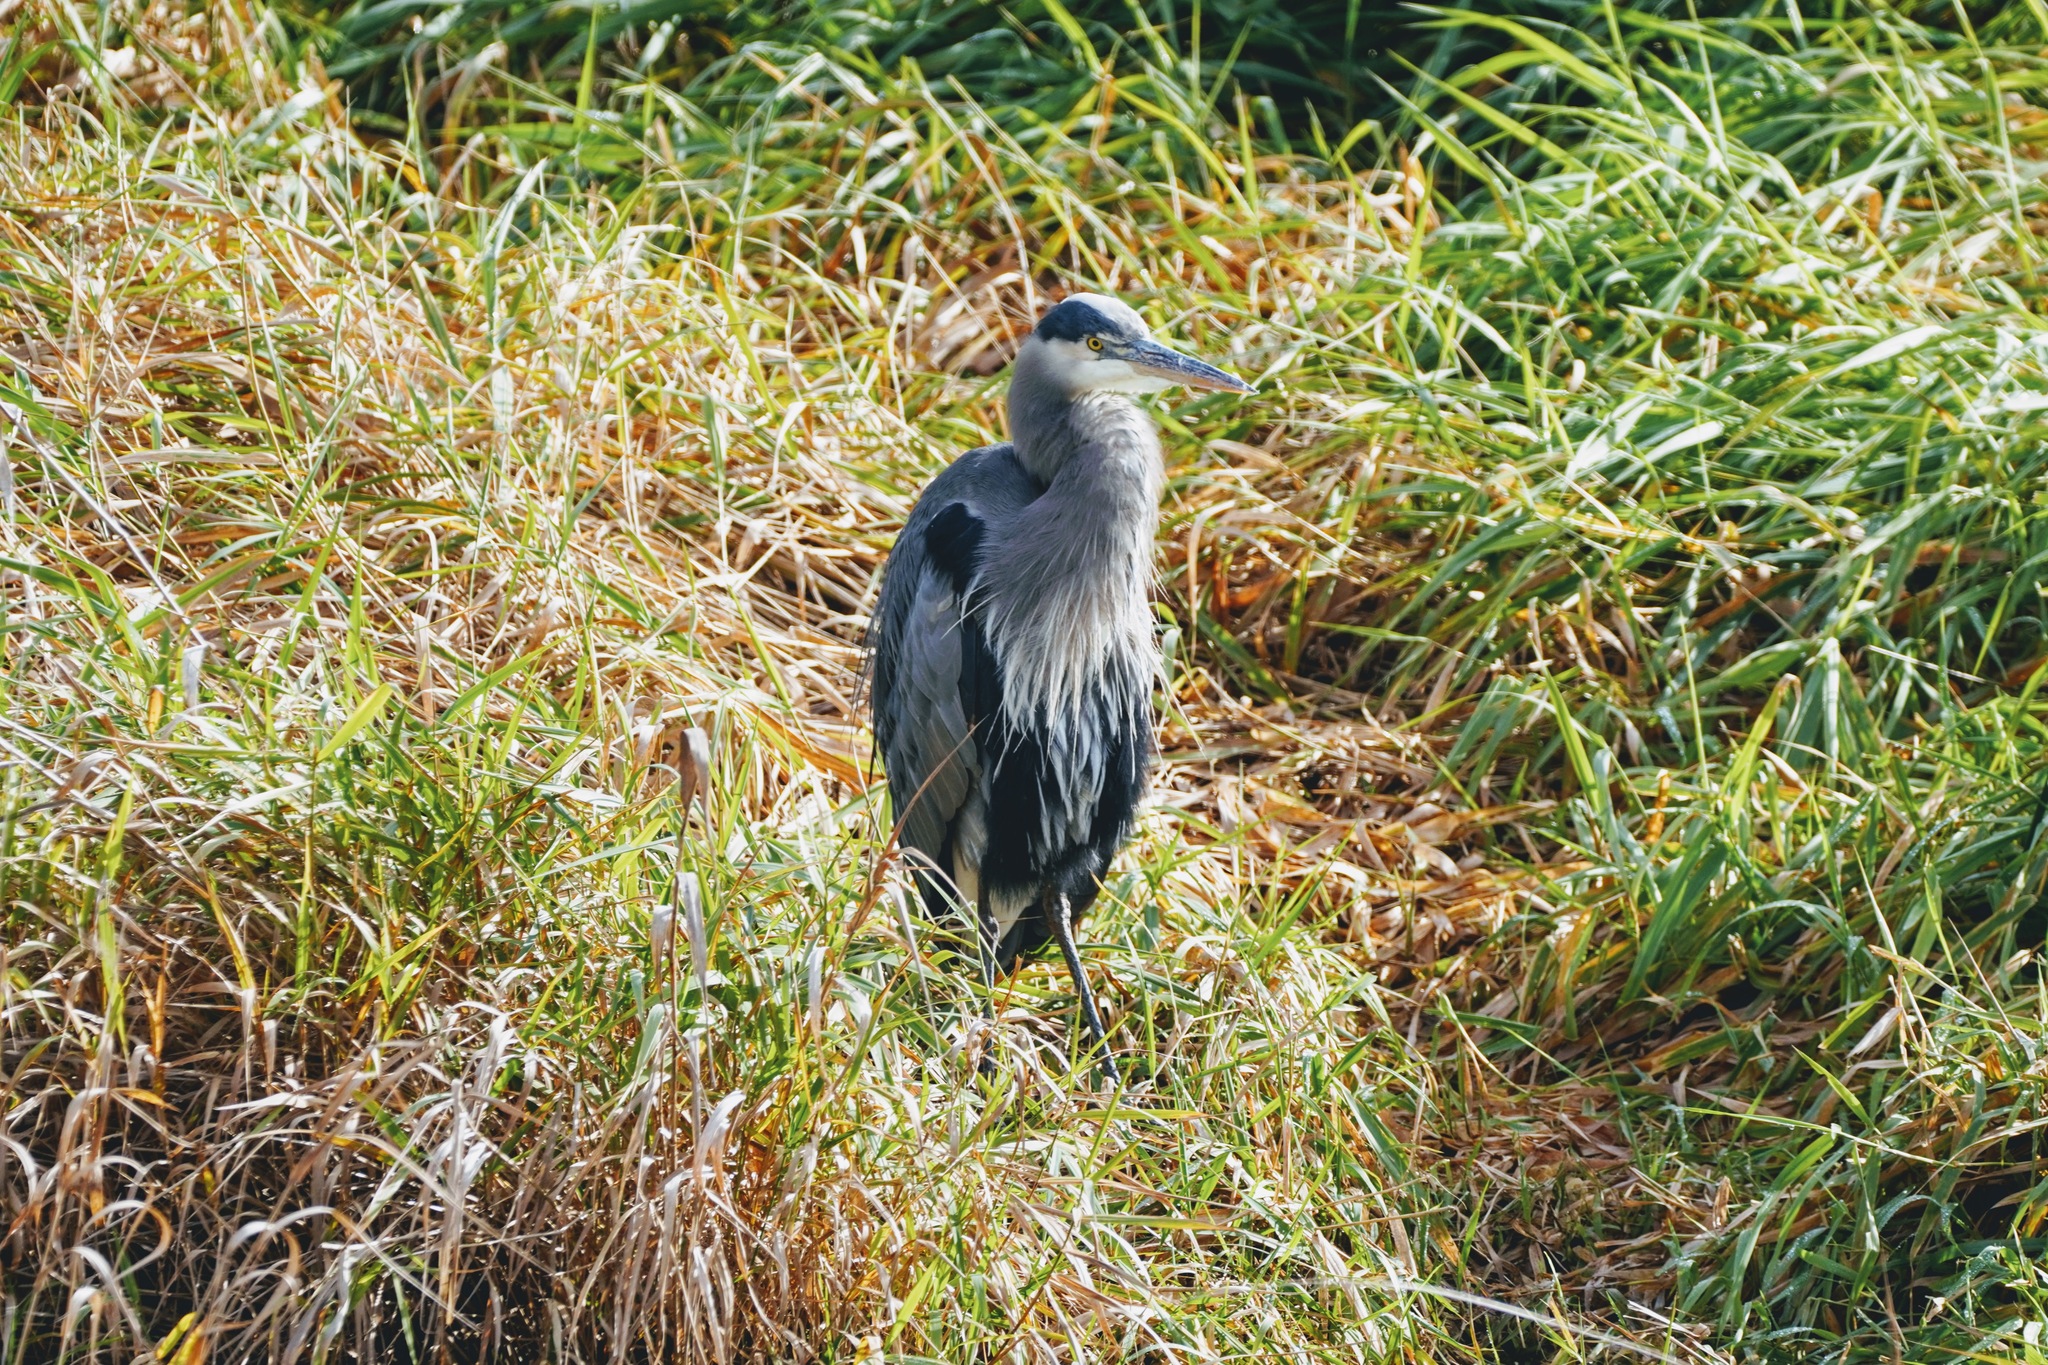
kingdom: Animalia
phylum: Chordata
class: Aves
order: Pelecaniformes
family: Ardeidae
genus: Ardea
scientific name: Ardea herodias
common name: Great blue heron
